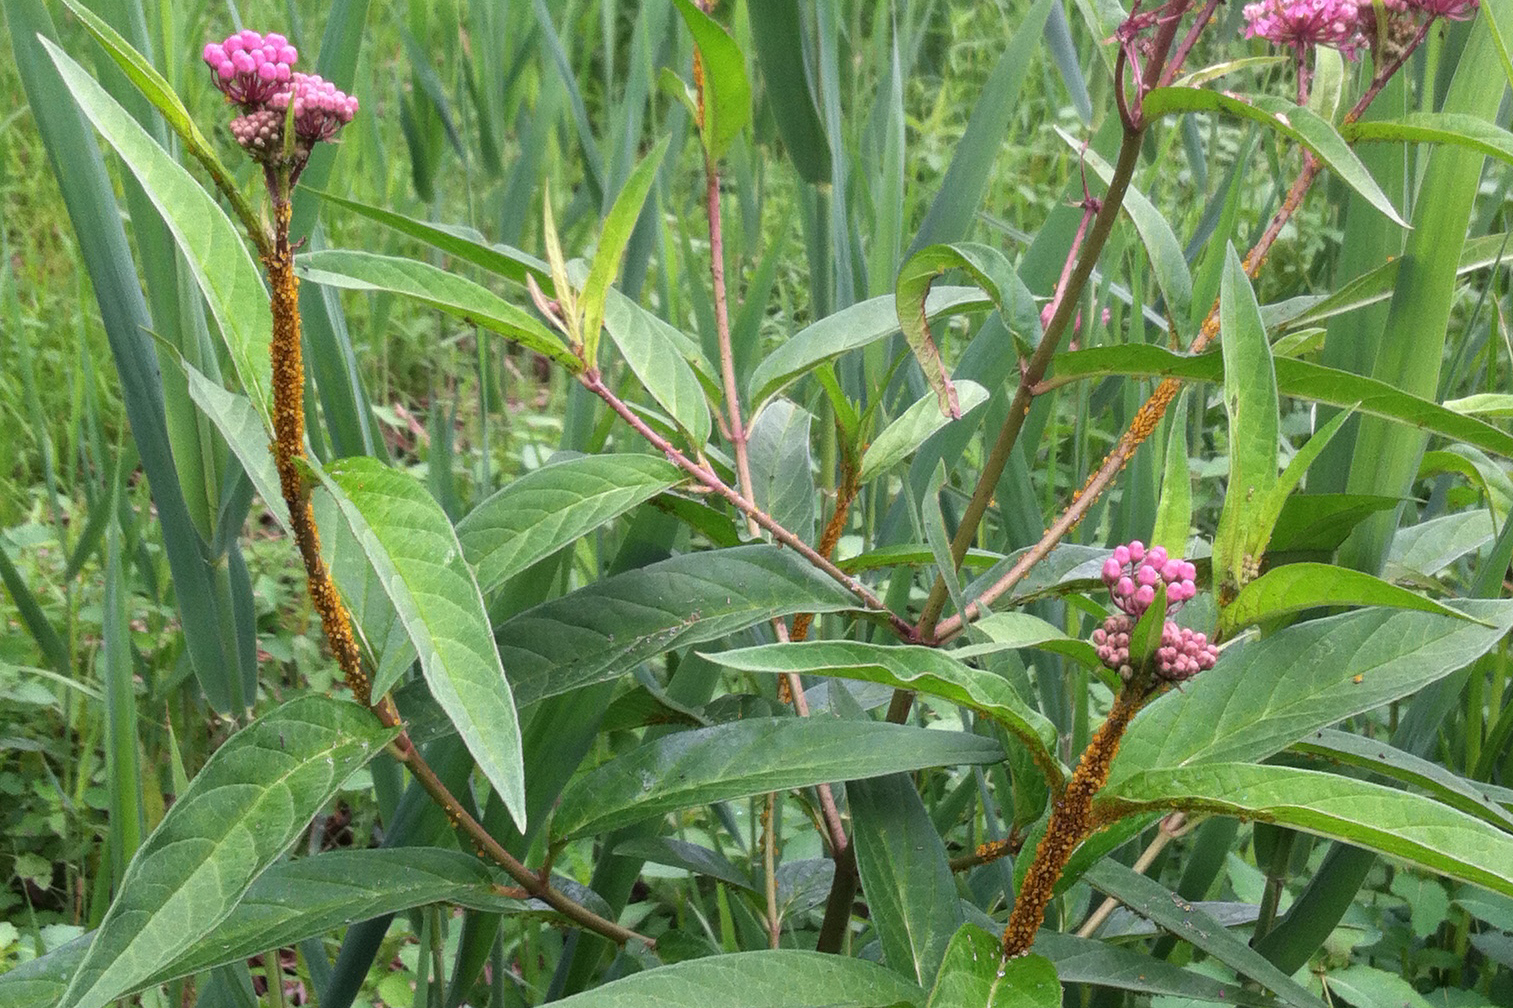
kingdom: Animalia
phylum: Arthropoda
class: Insecta
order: Hemiptera
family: Aphididae
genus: Aphis
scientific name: Aphis nerii
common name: Oleander aphid
